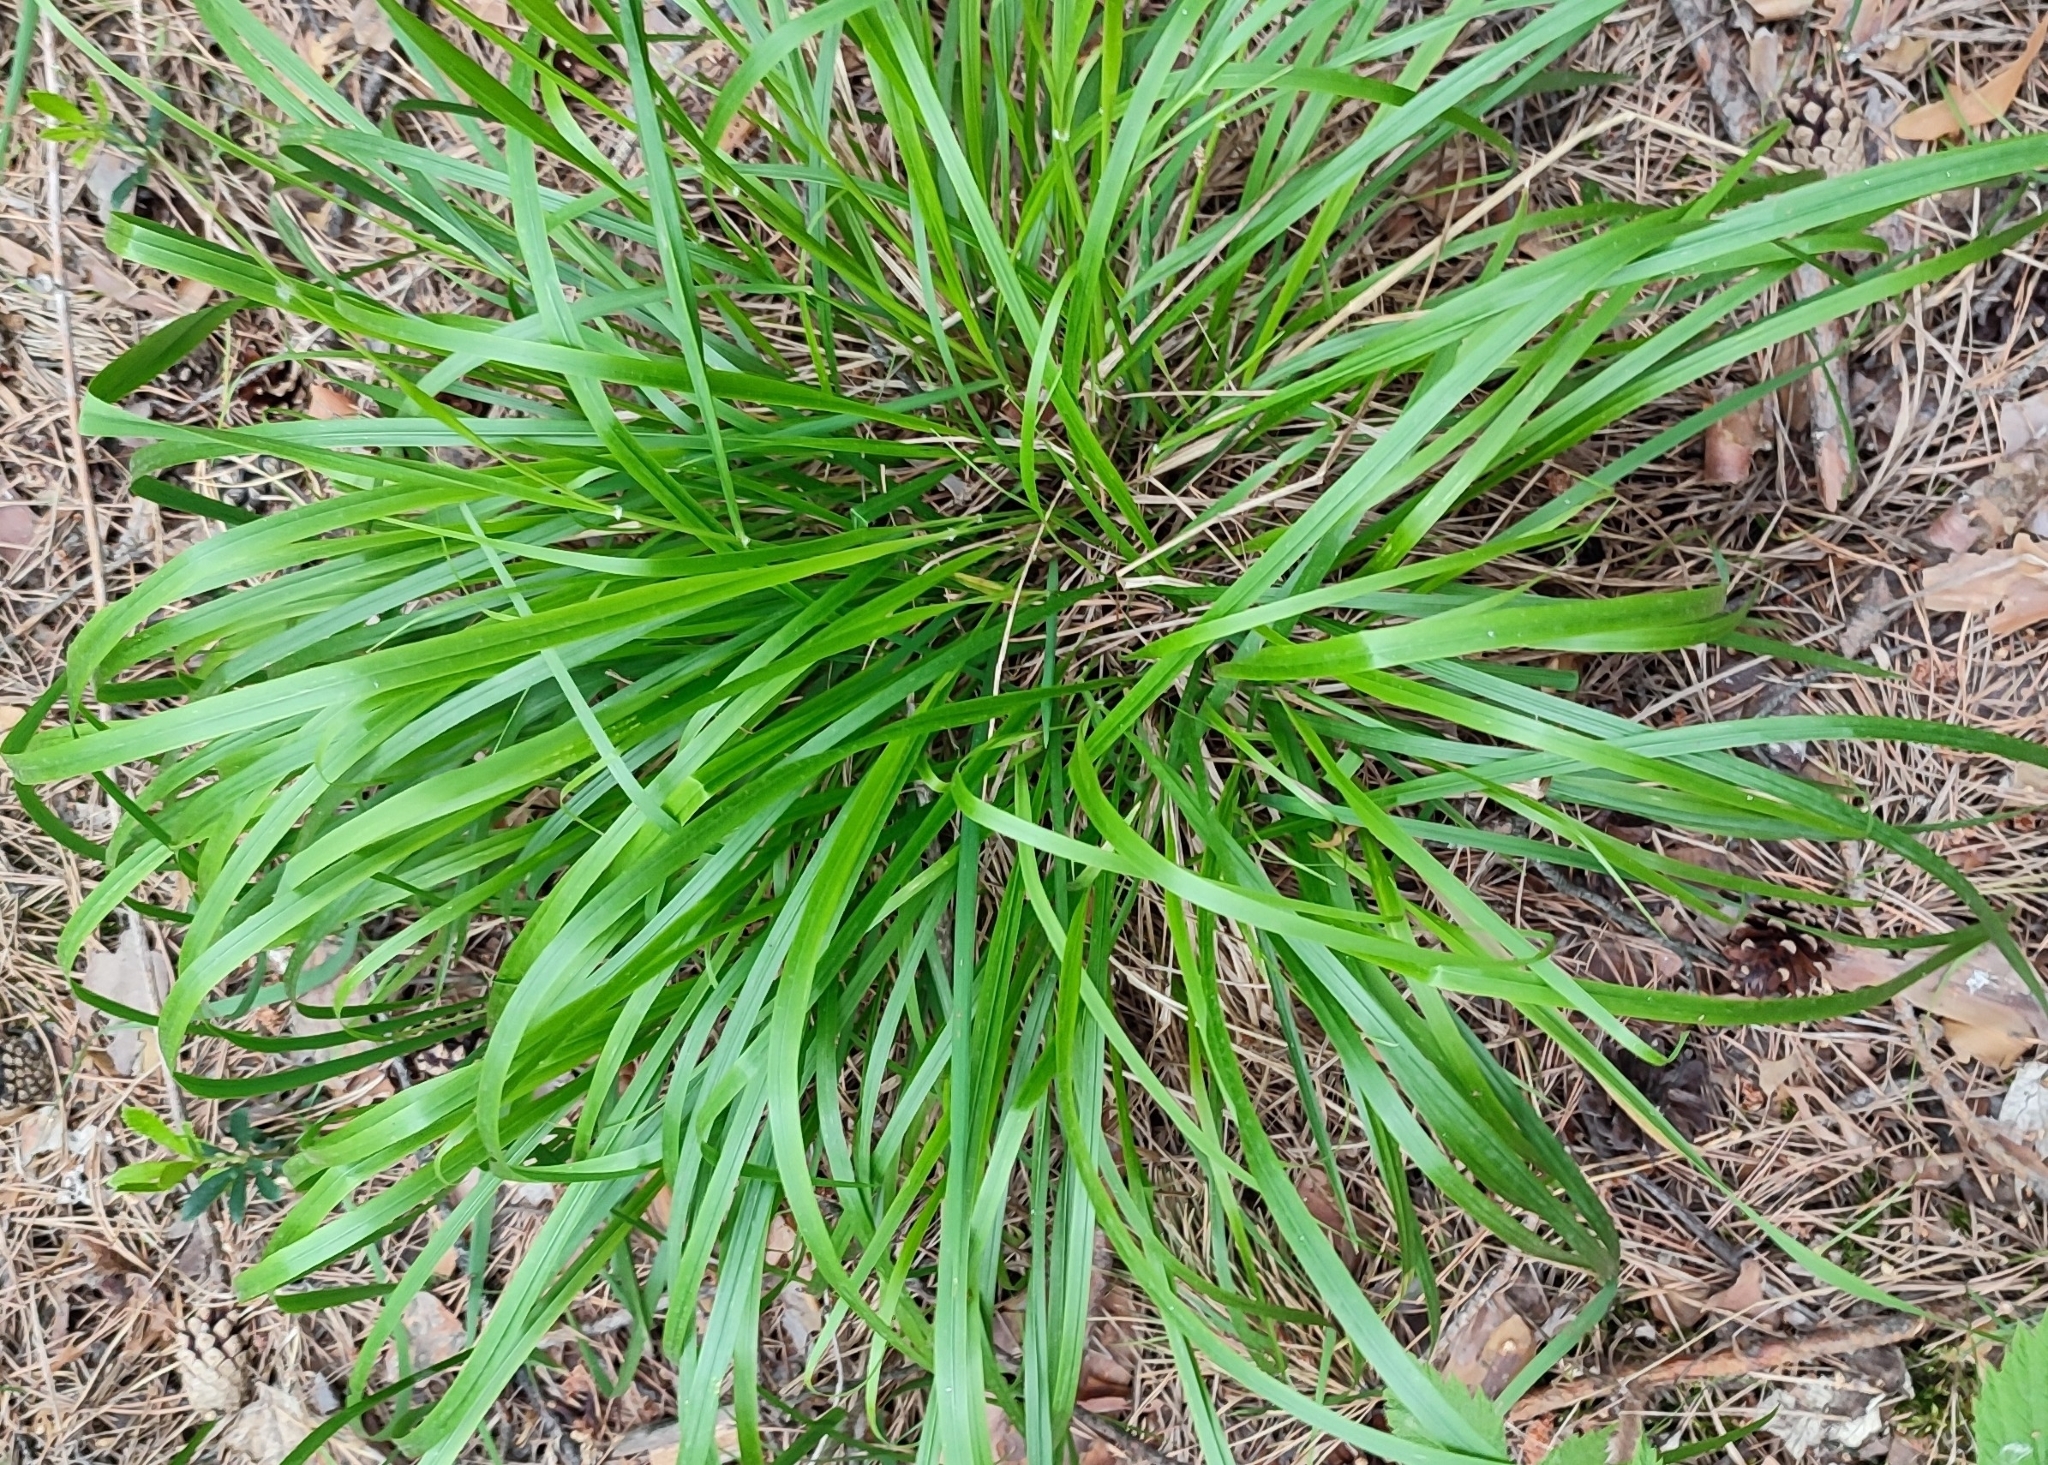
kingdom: Plantae
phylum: Tracheophyta
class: Liliopsida
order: Poales
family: Poaceae
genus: Calamagrostis
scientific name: Calamagrostis arundinacea
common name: Metskastik
